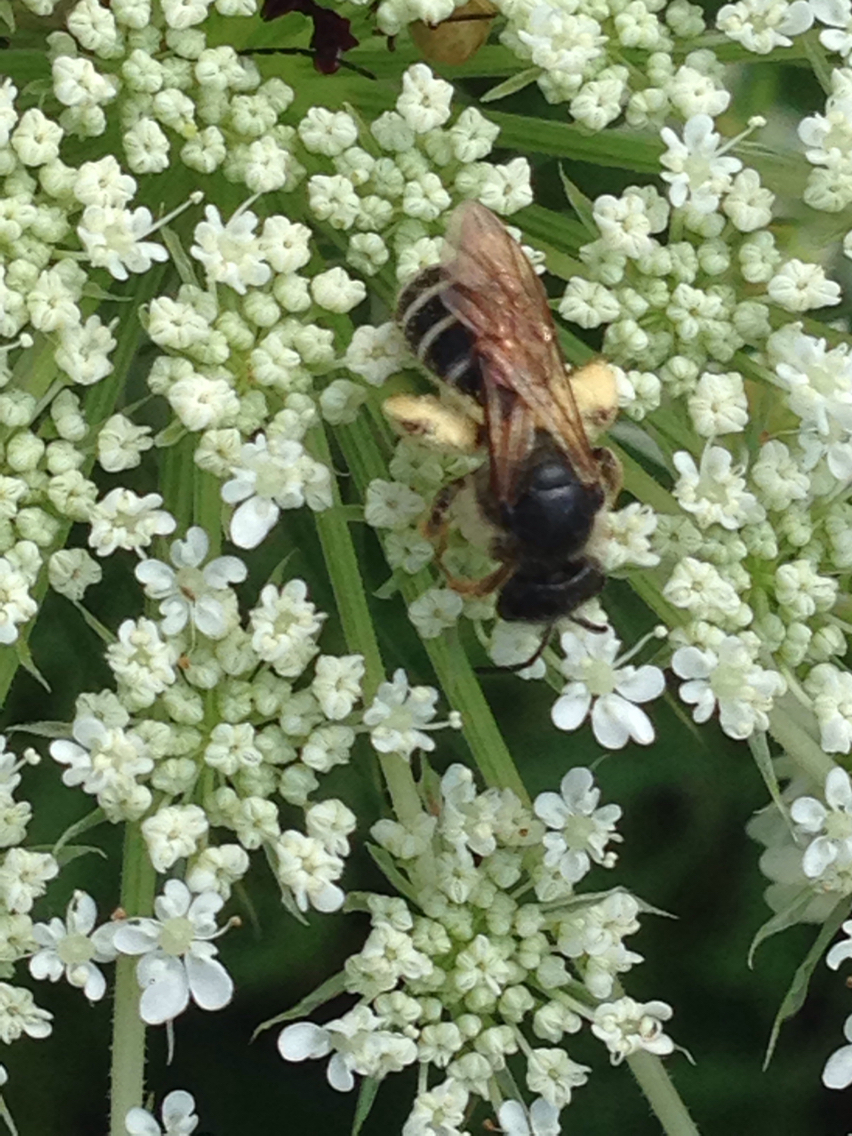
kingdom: Animalia
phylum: Arthropoda
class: Insecta
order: Hymenoptera
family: Halictidae
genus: Halictus
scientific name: Halictus rubicundus
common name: Orange-legged furrow bee
